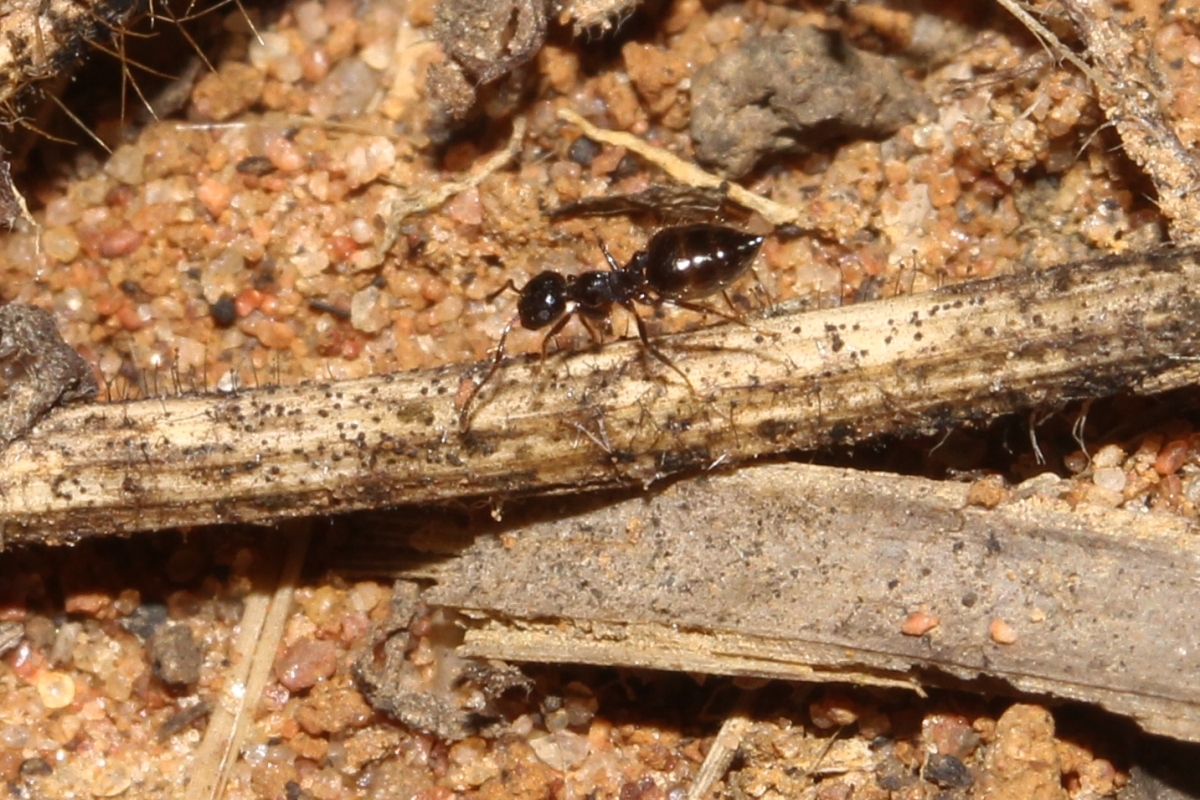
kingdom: Animalia
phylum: Arthropoda
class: Insecta
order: Hymenoptera
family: Formicidae
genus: Orthocrema
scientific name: Orthocrema
